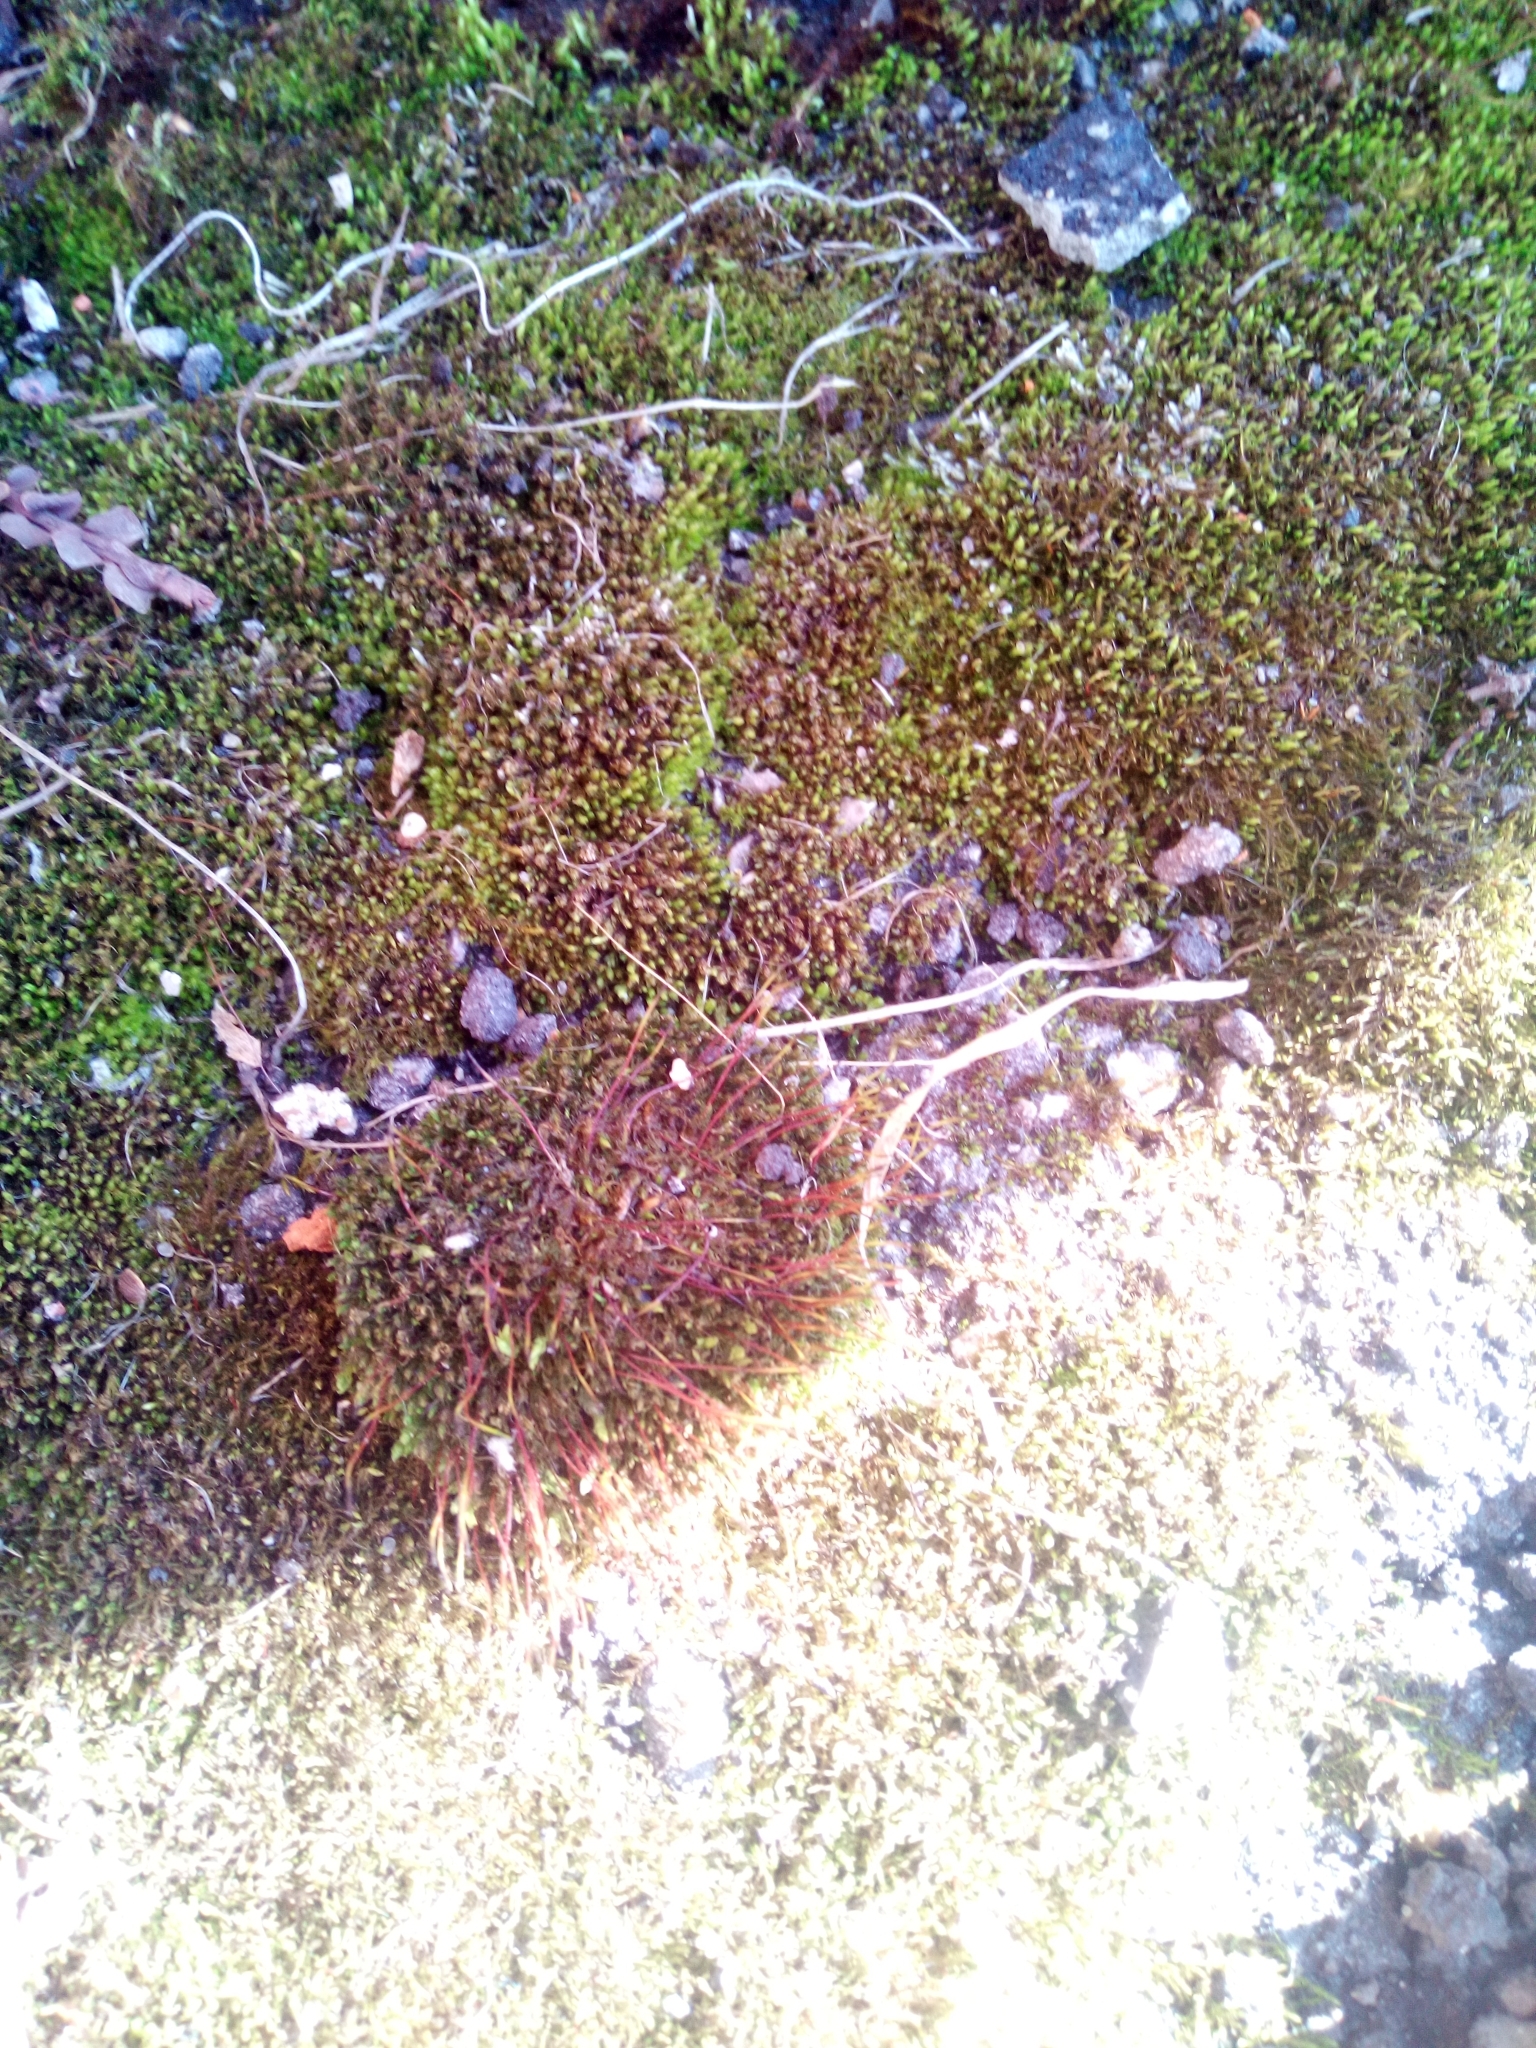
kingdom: Plantae
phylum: Bryophyta
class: Bryopsida
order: Dicranales
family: Ditrichaceae
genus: Ceratodon
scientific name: Ceratodon purpureus
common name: Redshank
